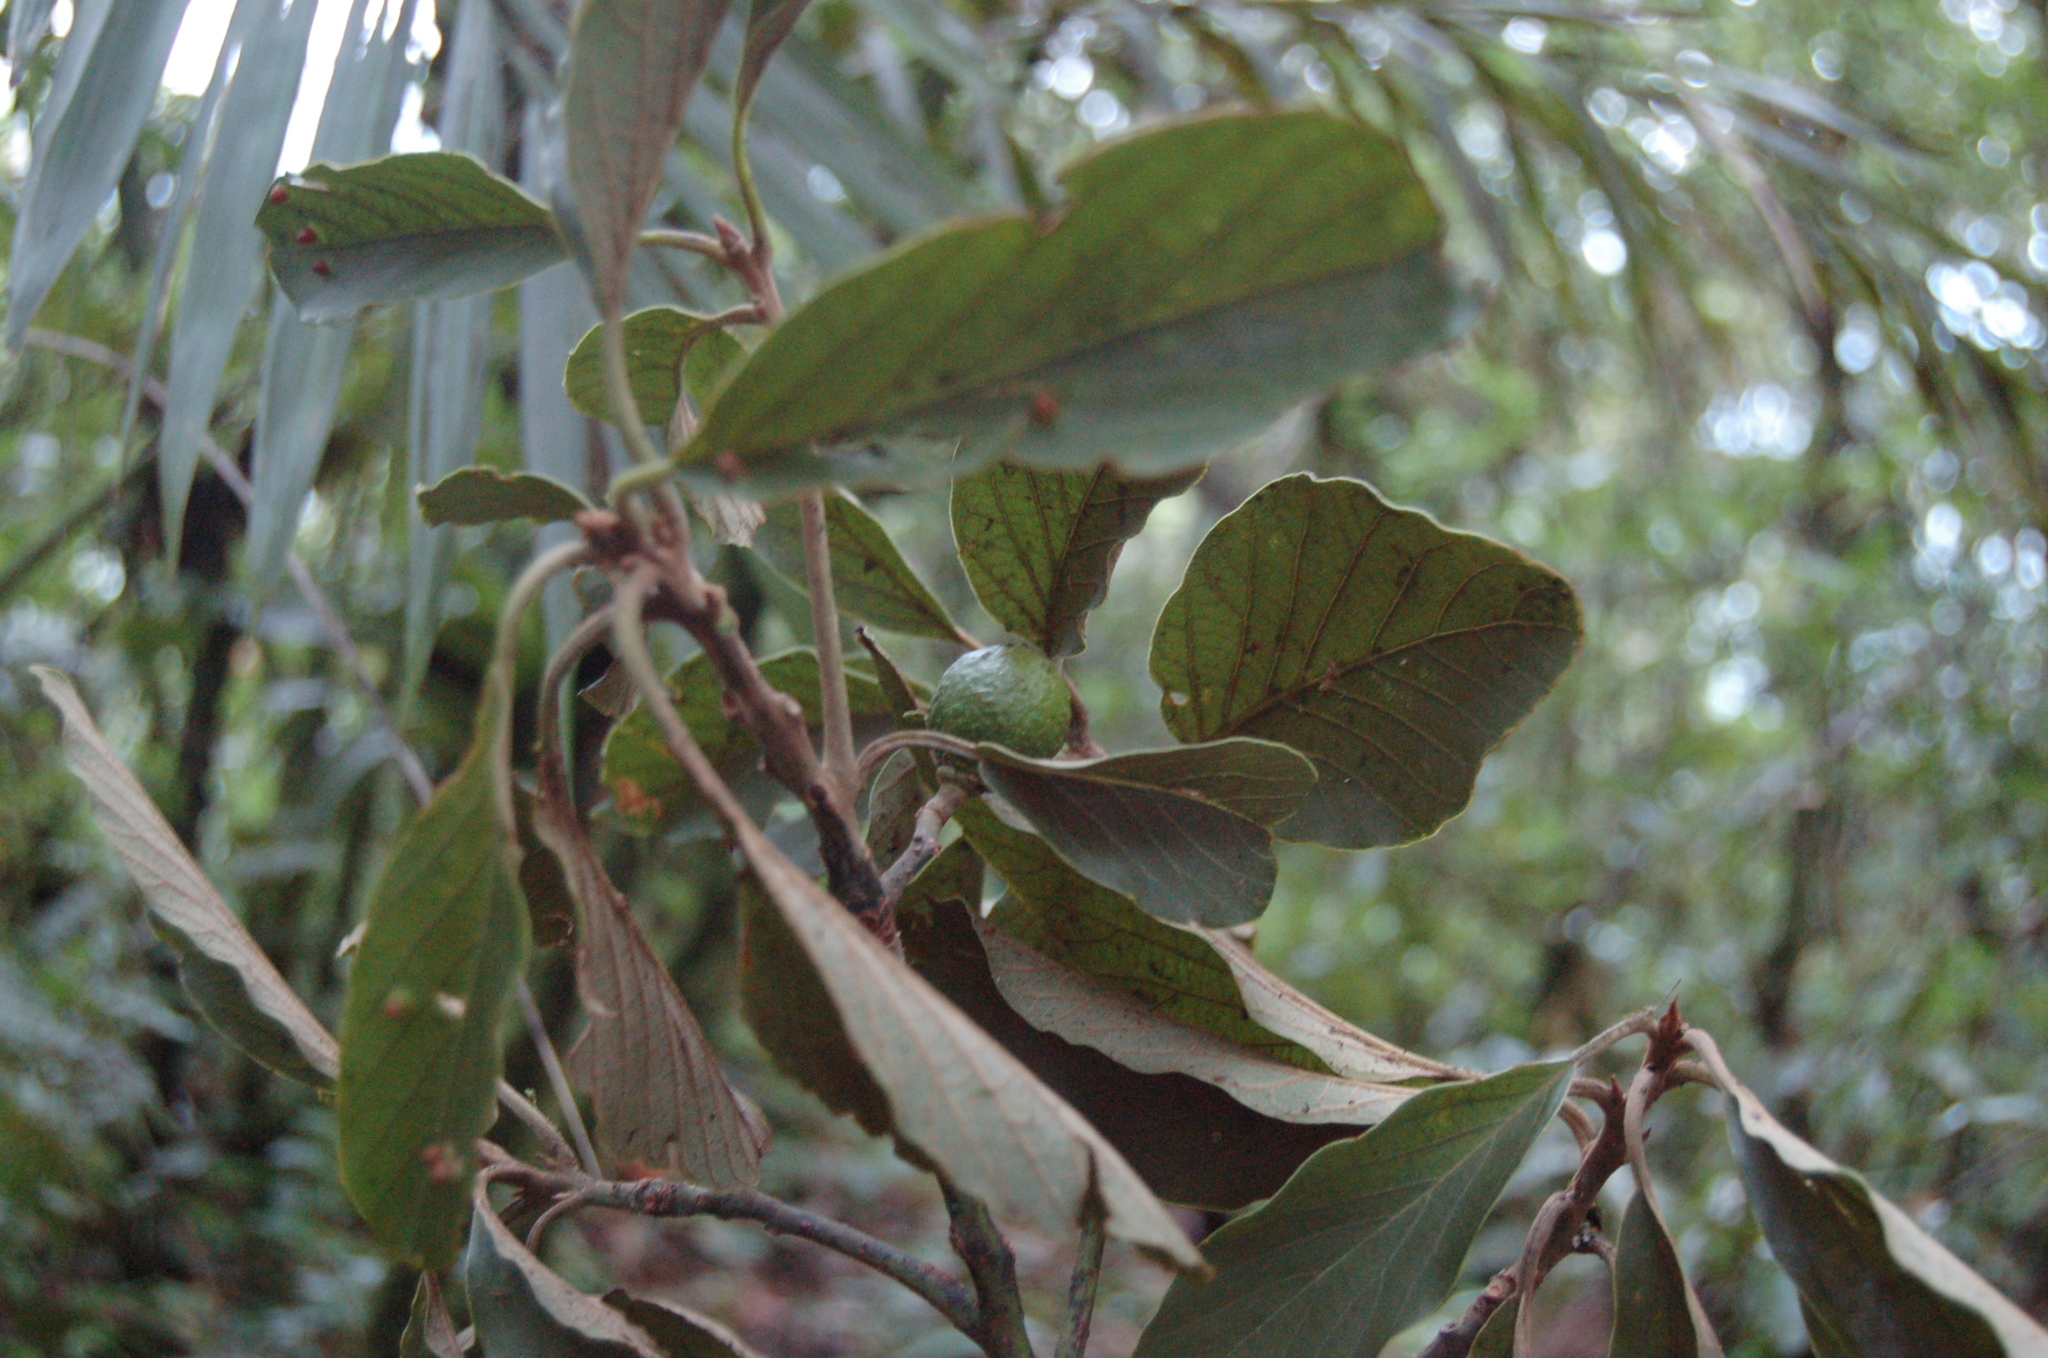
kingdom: Plantae
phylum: Tracheophyta
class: Magnoliopsida
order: Laurales
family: Lauraceae
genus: Persea
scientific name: Persea chamissonis
